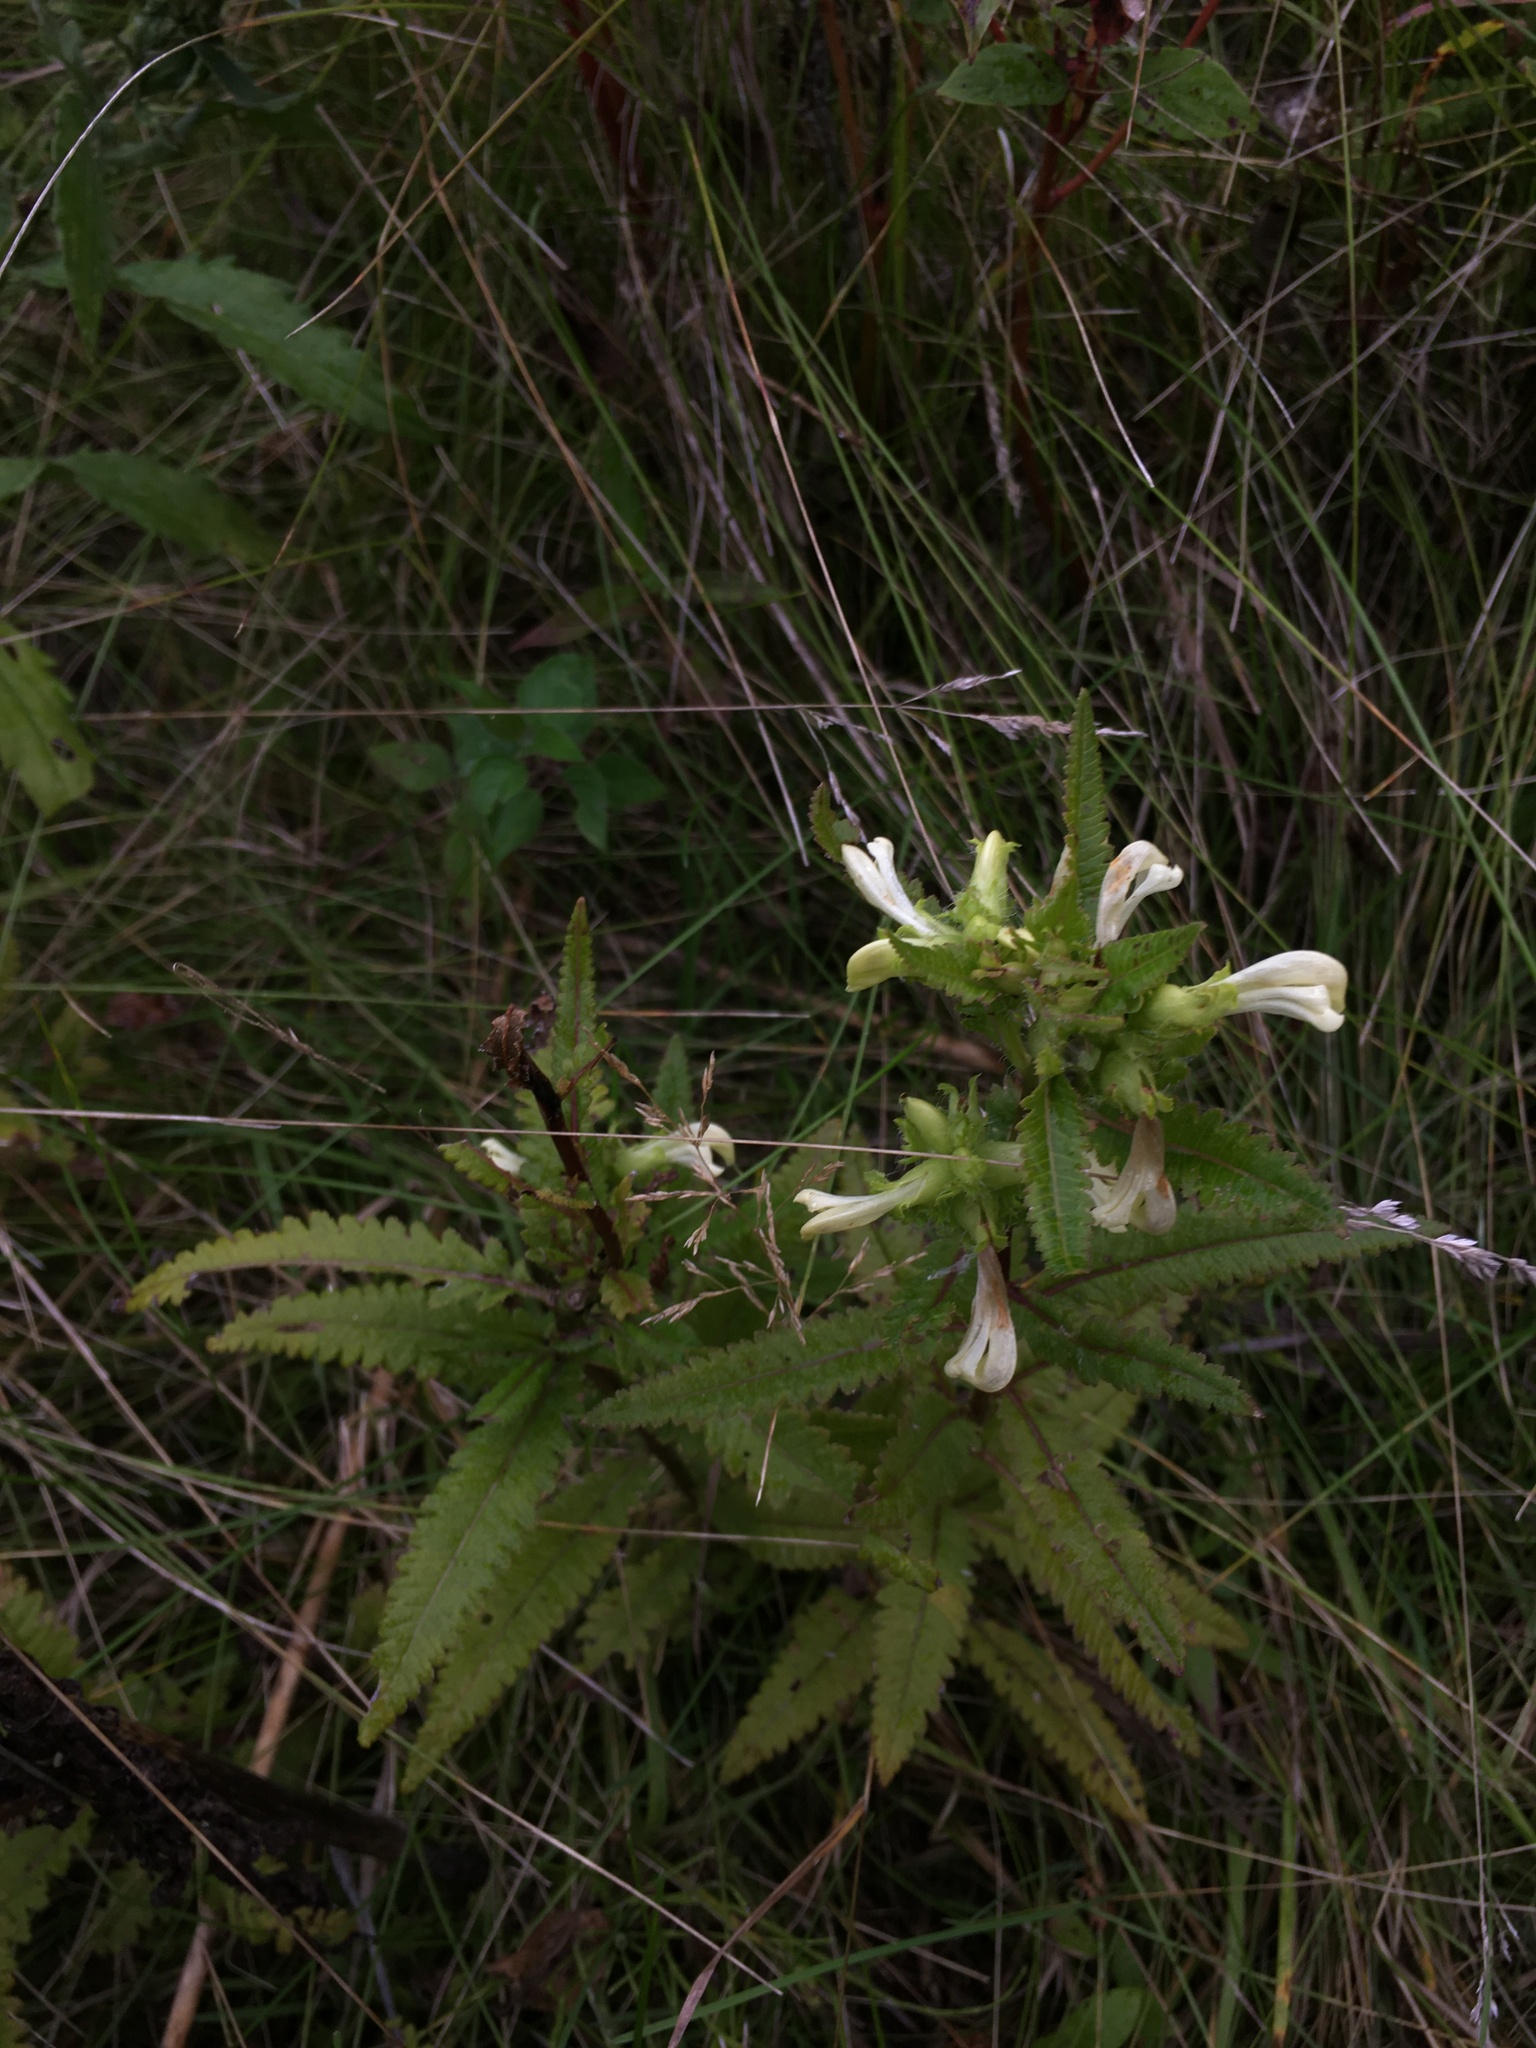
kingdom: Plantae
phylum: Tracheophyta
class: Magnoliopsida
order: Lamiales
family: Orobanchaceae
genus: Pedicularis
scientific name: Pedicularis lanceolata
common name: Swamp lousewort
